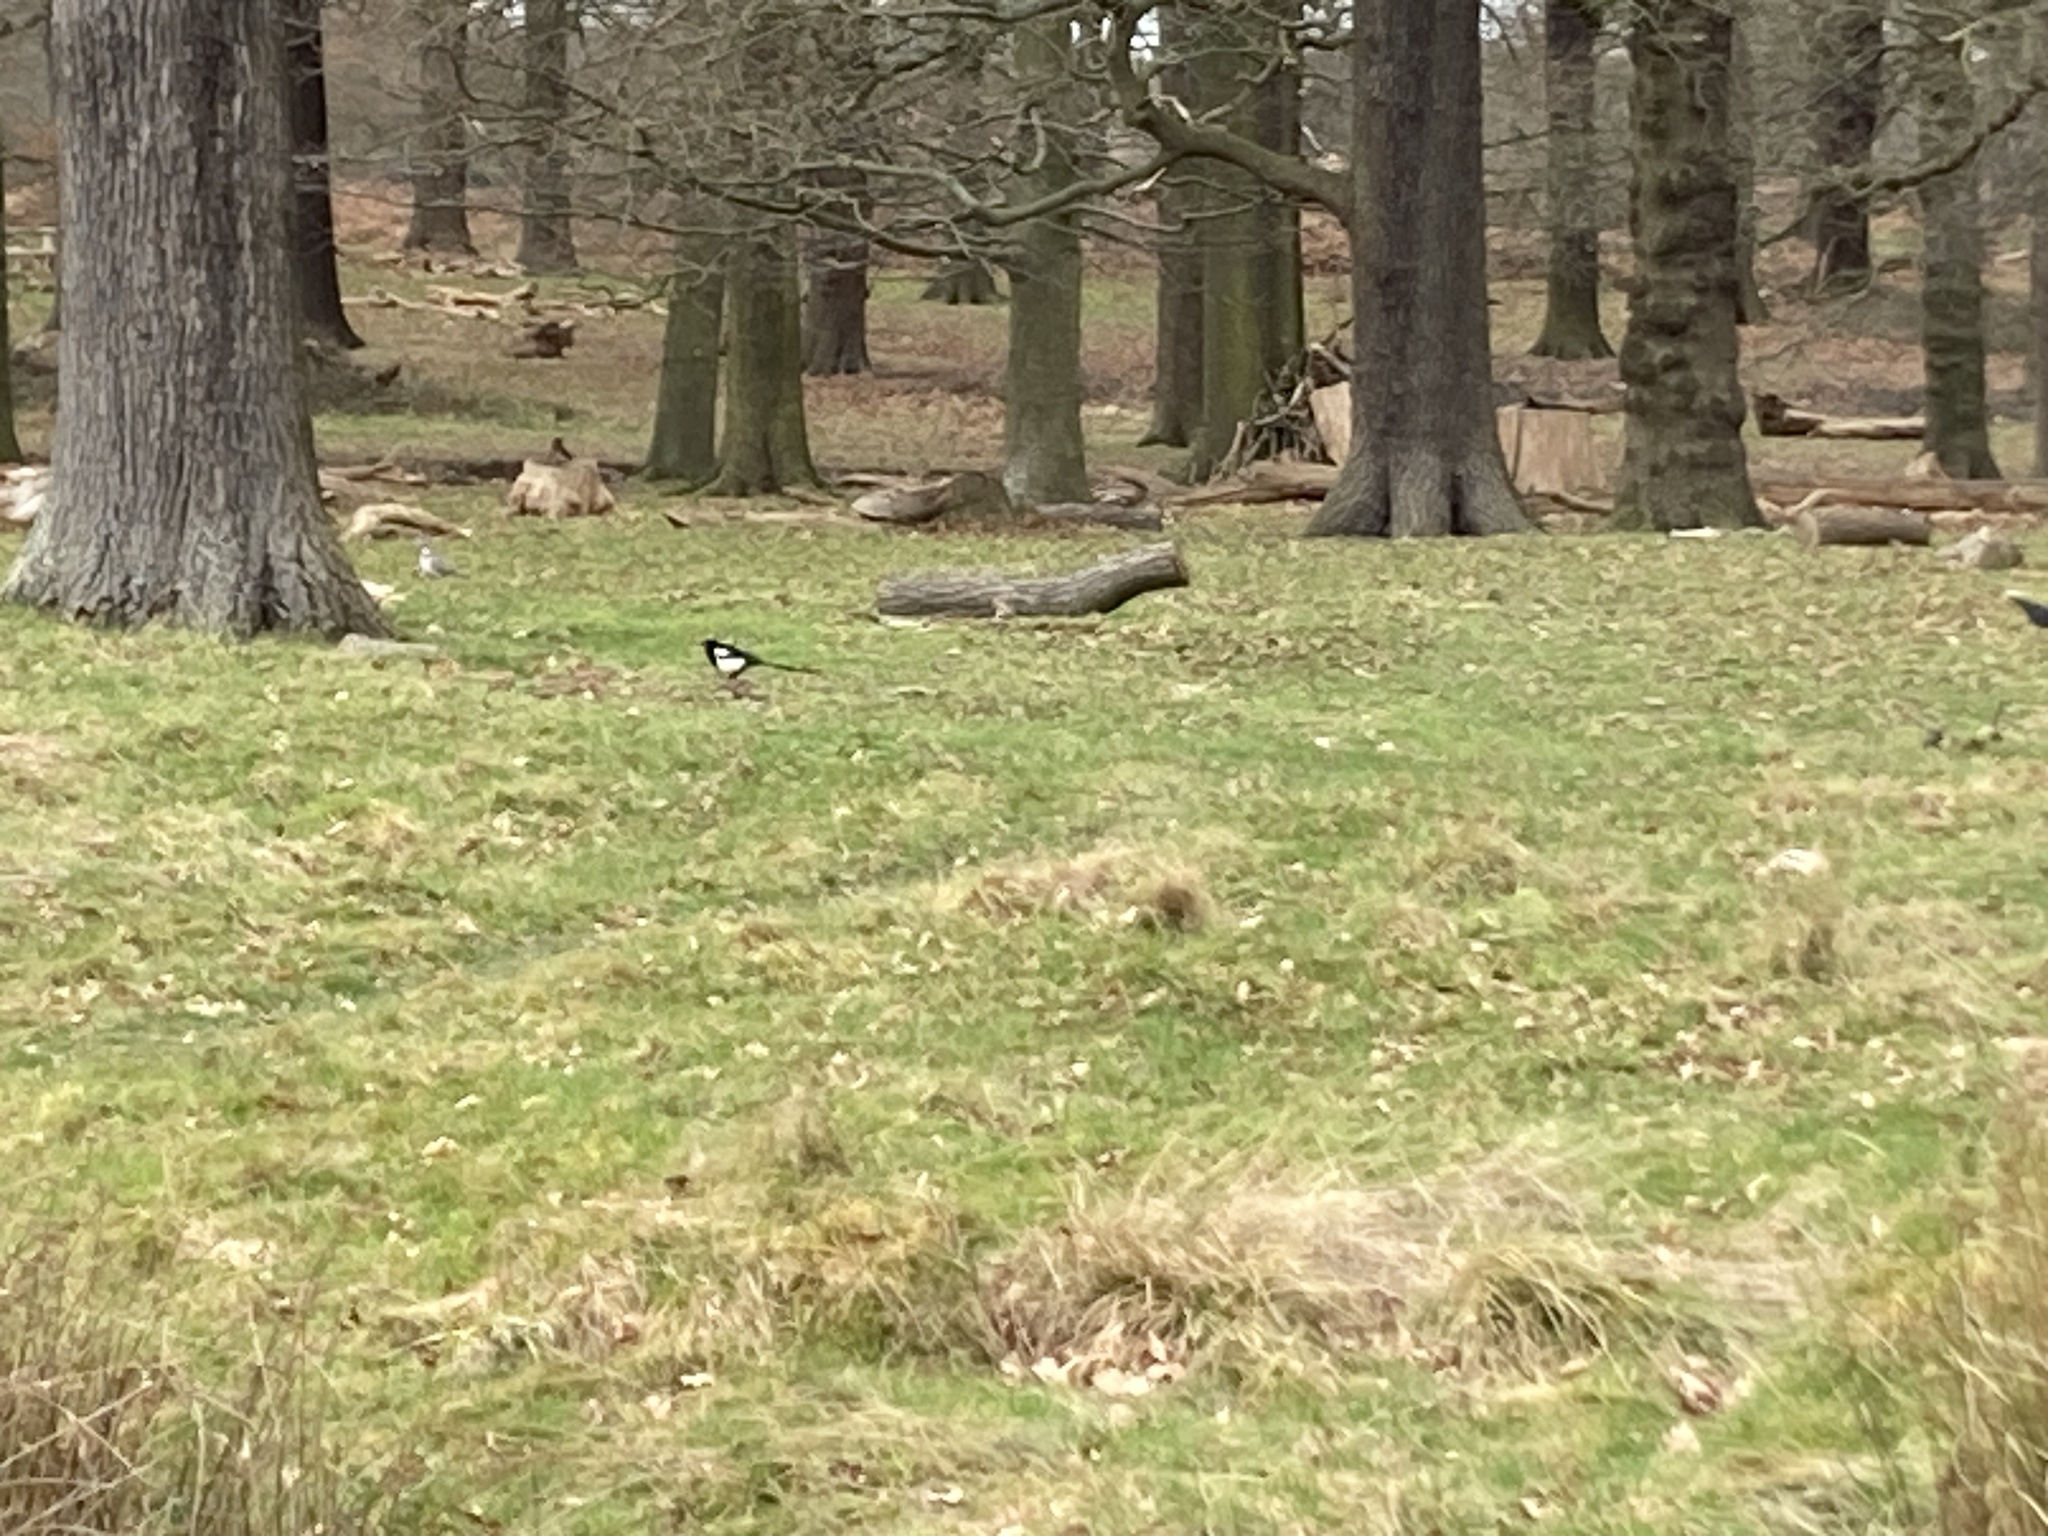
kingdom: Animalia
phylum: Chordata
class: Aves
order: Passeriformes
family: Corvidae
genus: Pica
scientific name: Pica pica
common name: Eurasian magpie
